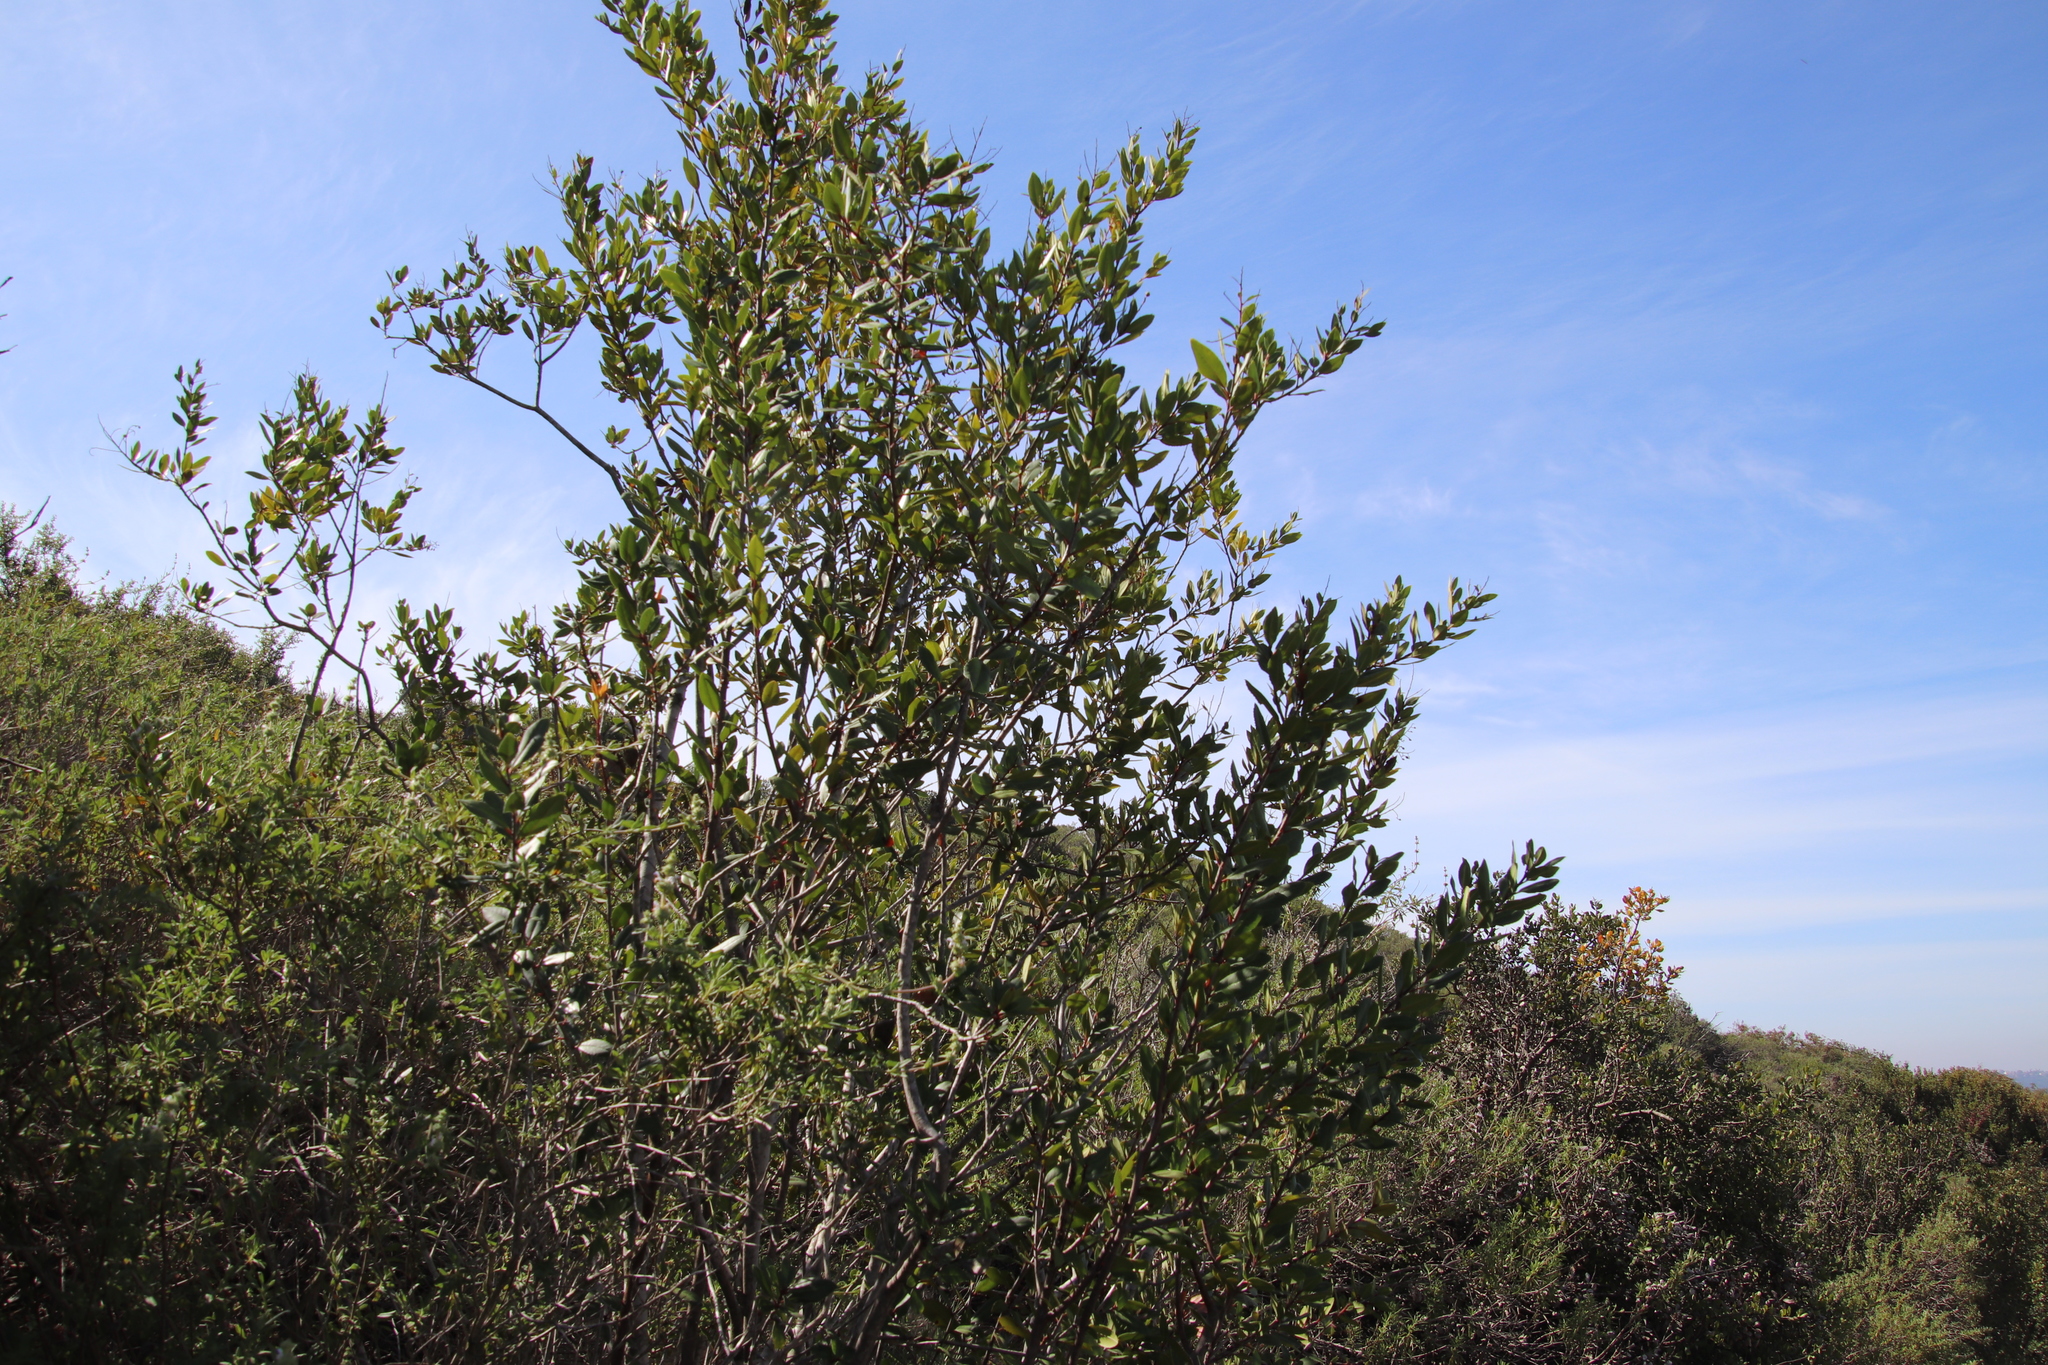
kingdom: Plantae
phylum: Tracheophyta
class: Magnoliopsida
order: Rosales
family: Rosaceae
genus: Heteromeles
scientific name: Heteromeles arbutifolia
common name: California-holly
